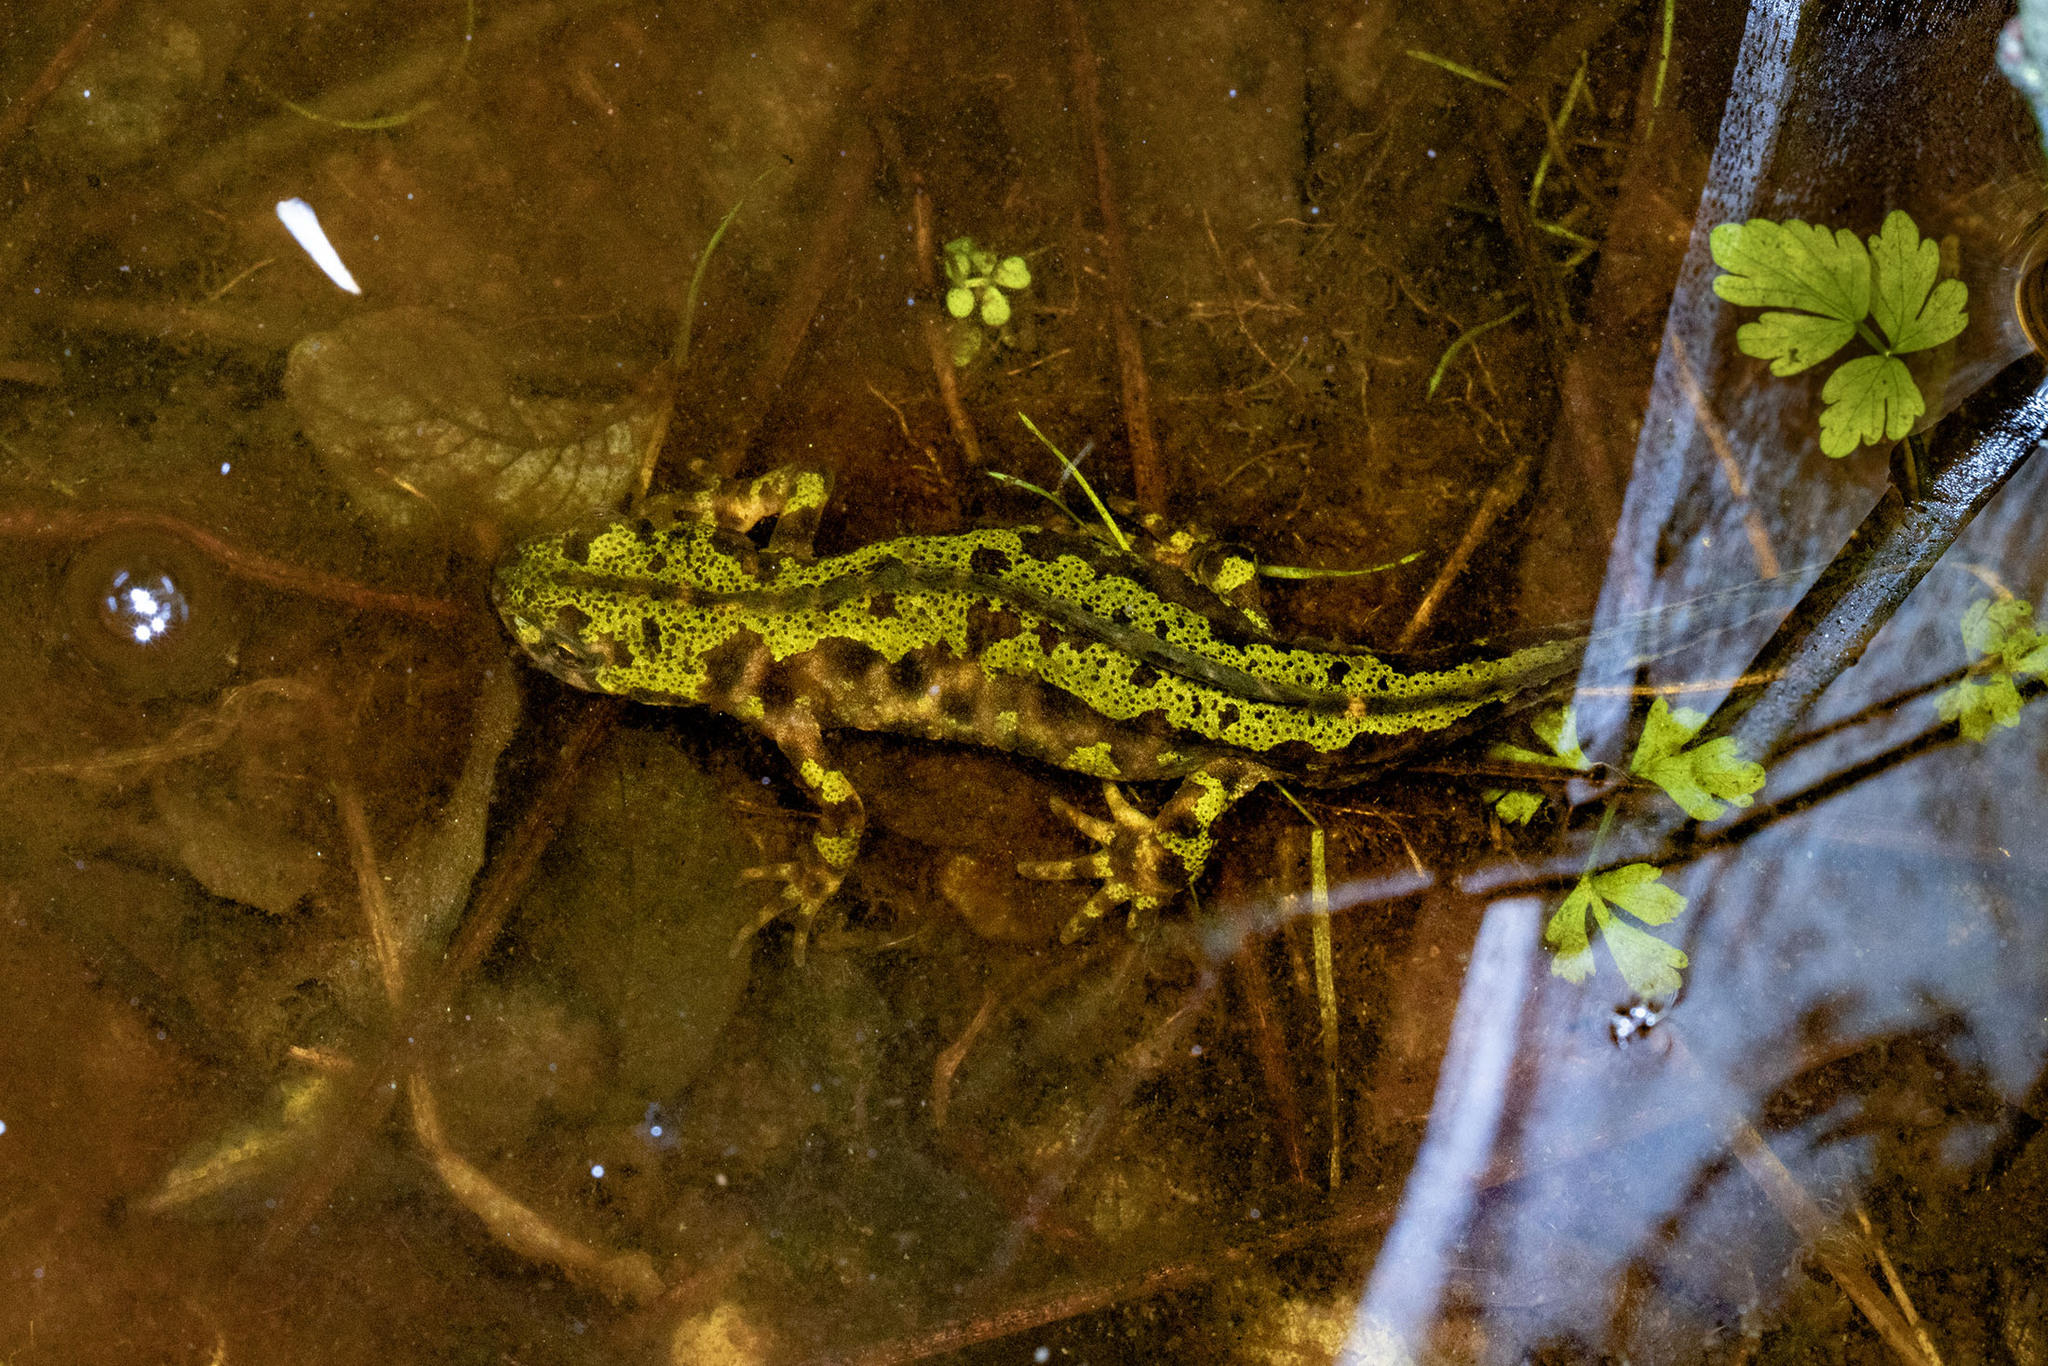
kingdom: Animalia
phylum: Chordata
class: Amphibia
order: Caudata
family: Salamandridae
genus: Triturus
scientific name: Triturus marmoratus
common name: Marbled newt
